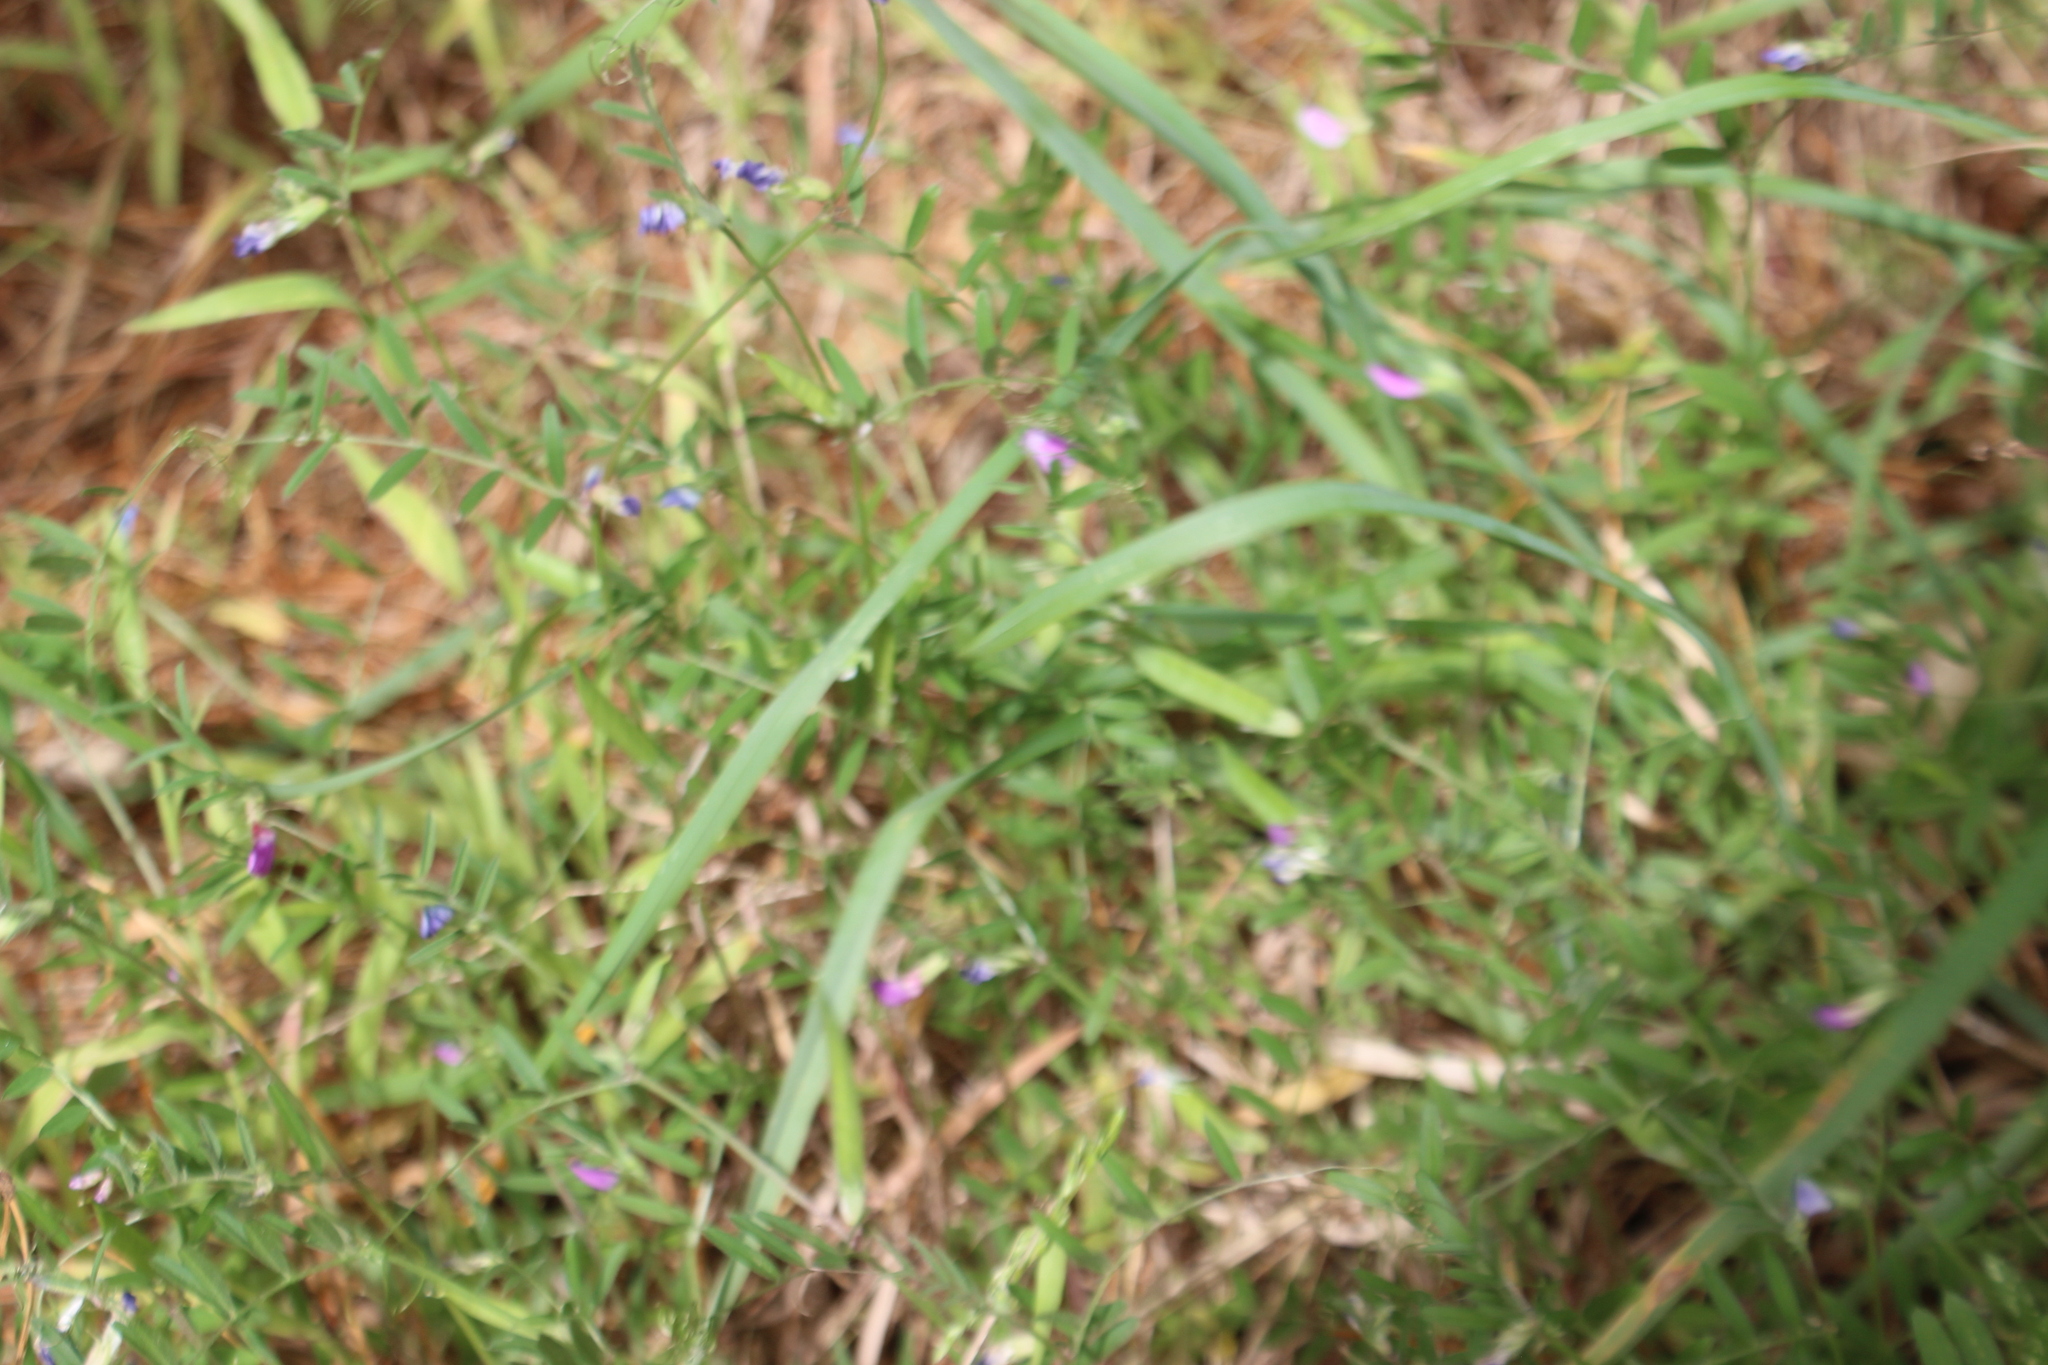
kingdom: Plantae
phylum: Tracheophyta
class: Magnoliopsida
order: Fabales
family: Fabaceae
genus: Vicia
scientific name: Vicia sativa
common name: Garden vetch
